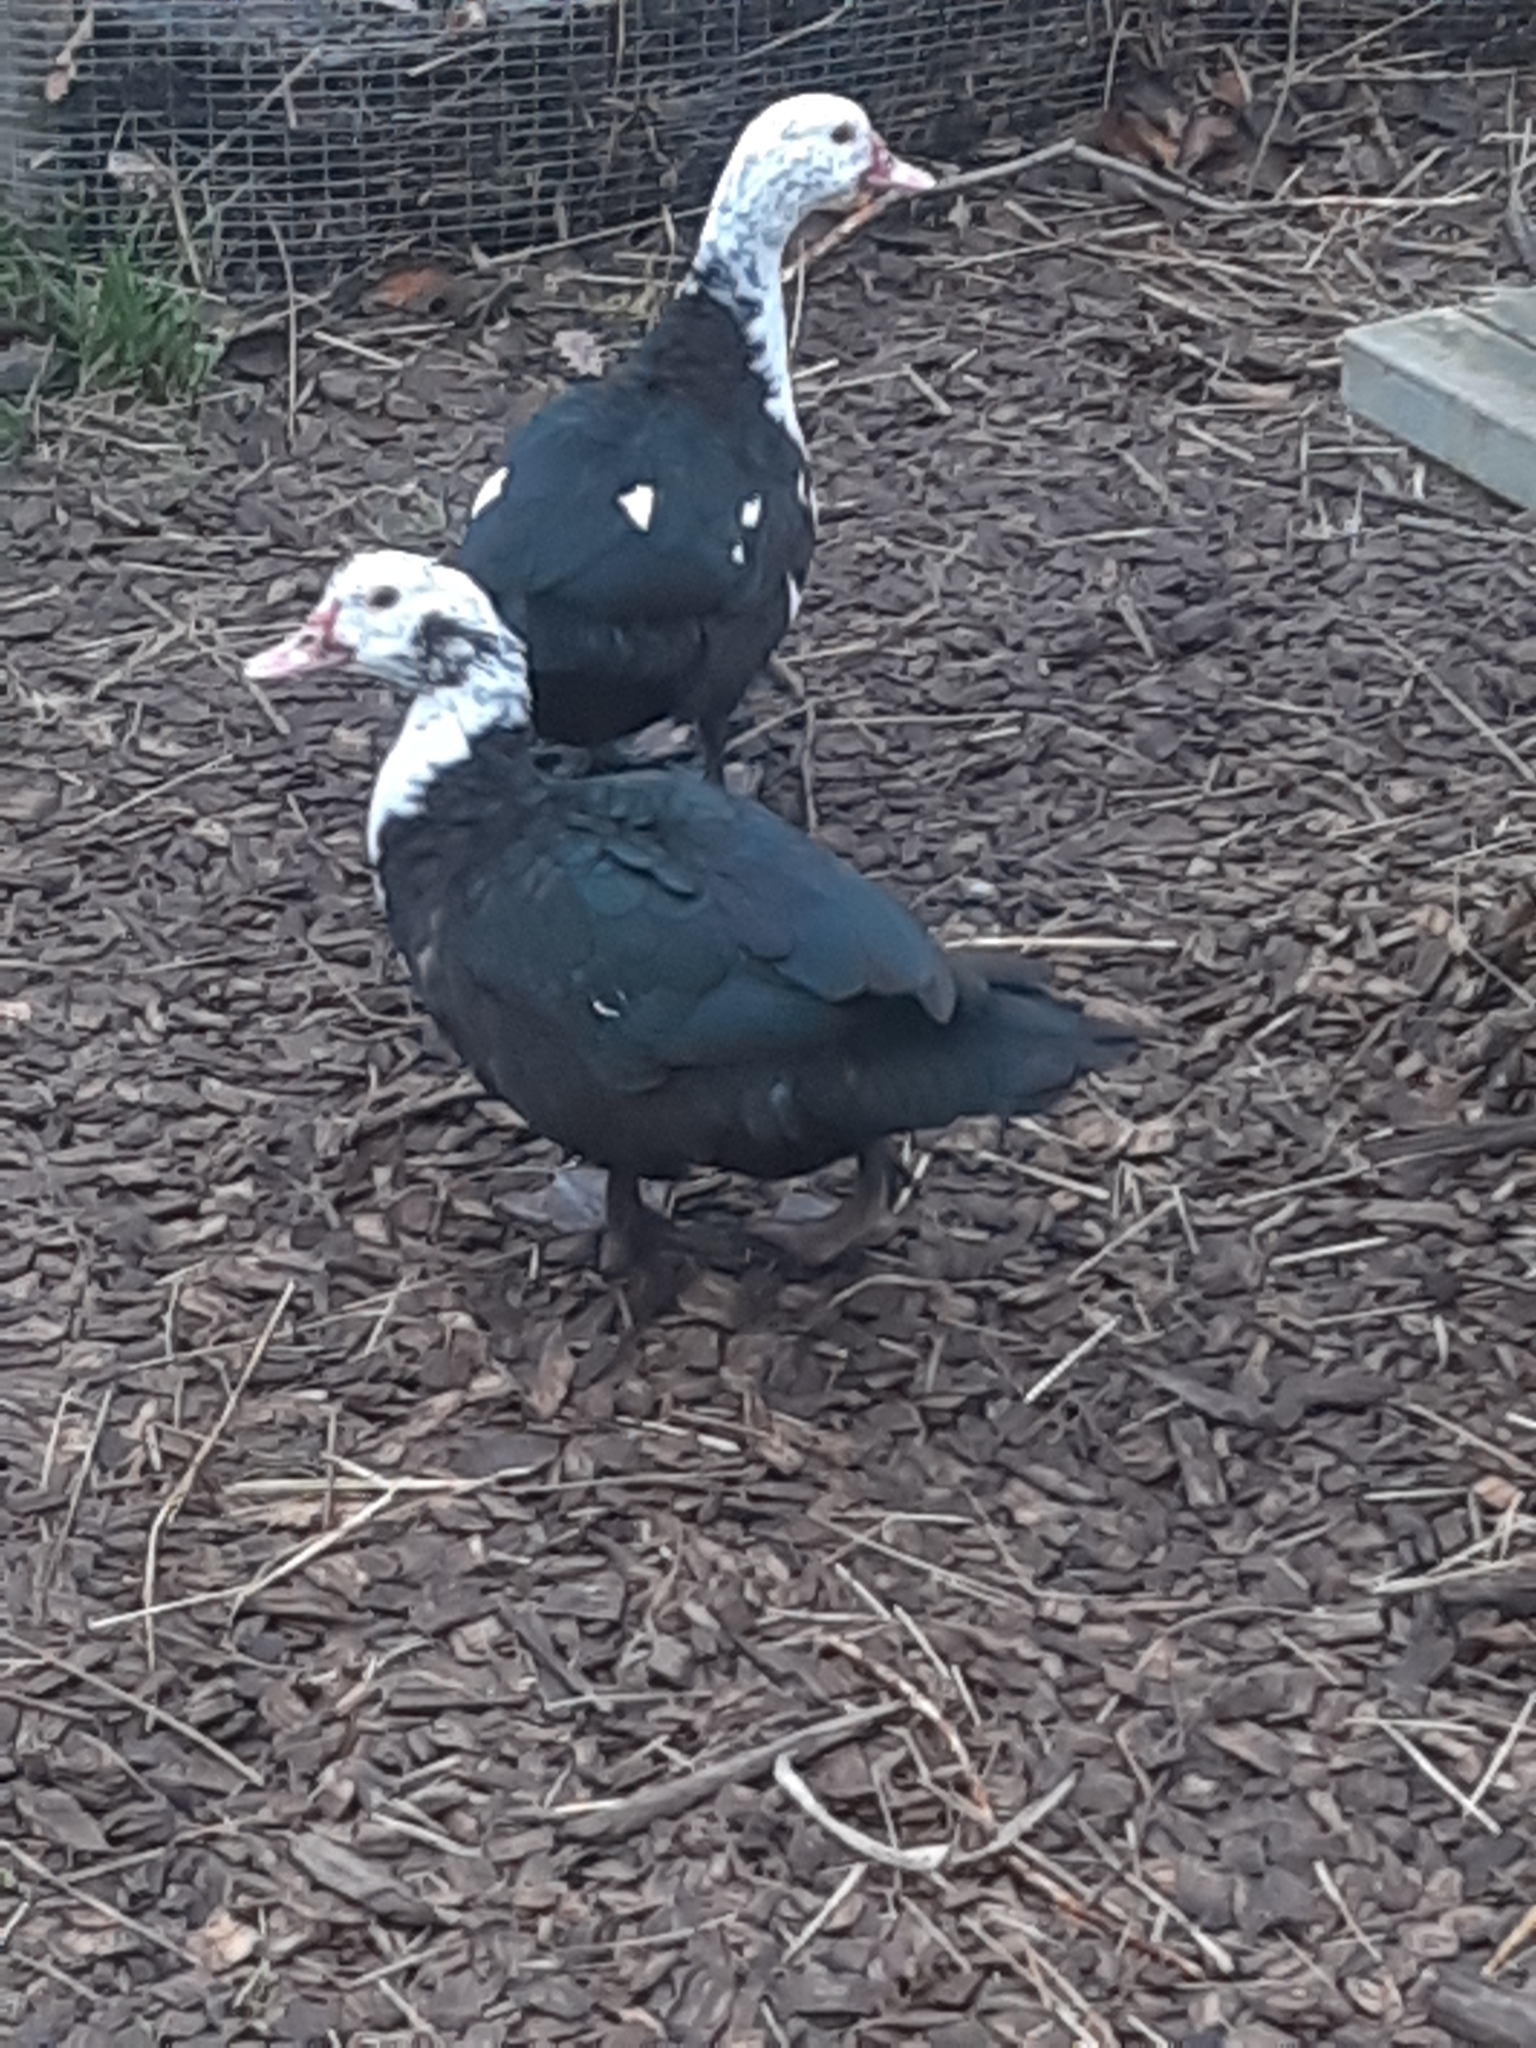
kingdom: Animalia
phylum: Chordata
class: Aves
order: Anseriformes
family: Anatidae
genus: Cairina
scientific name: Cairina moschata
